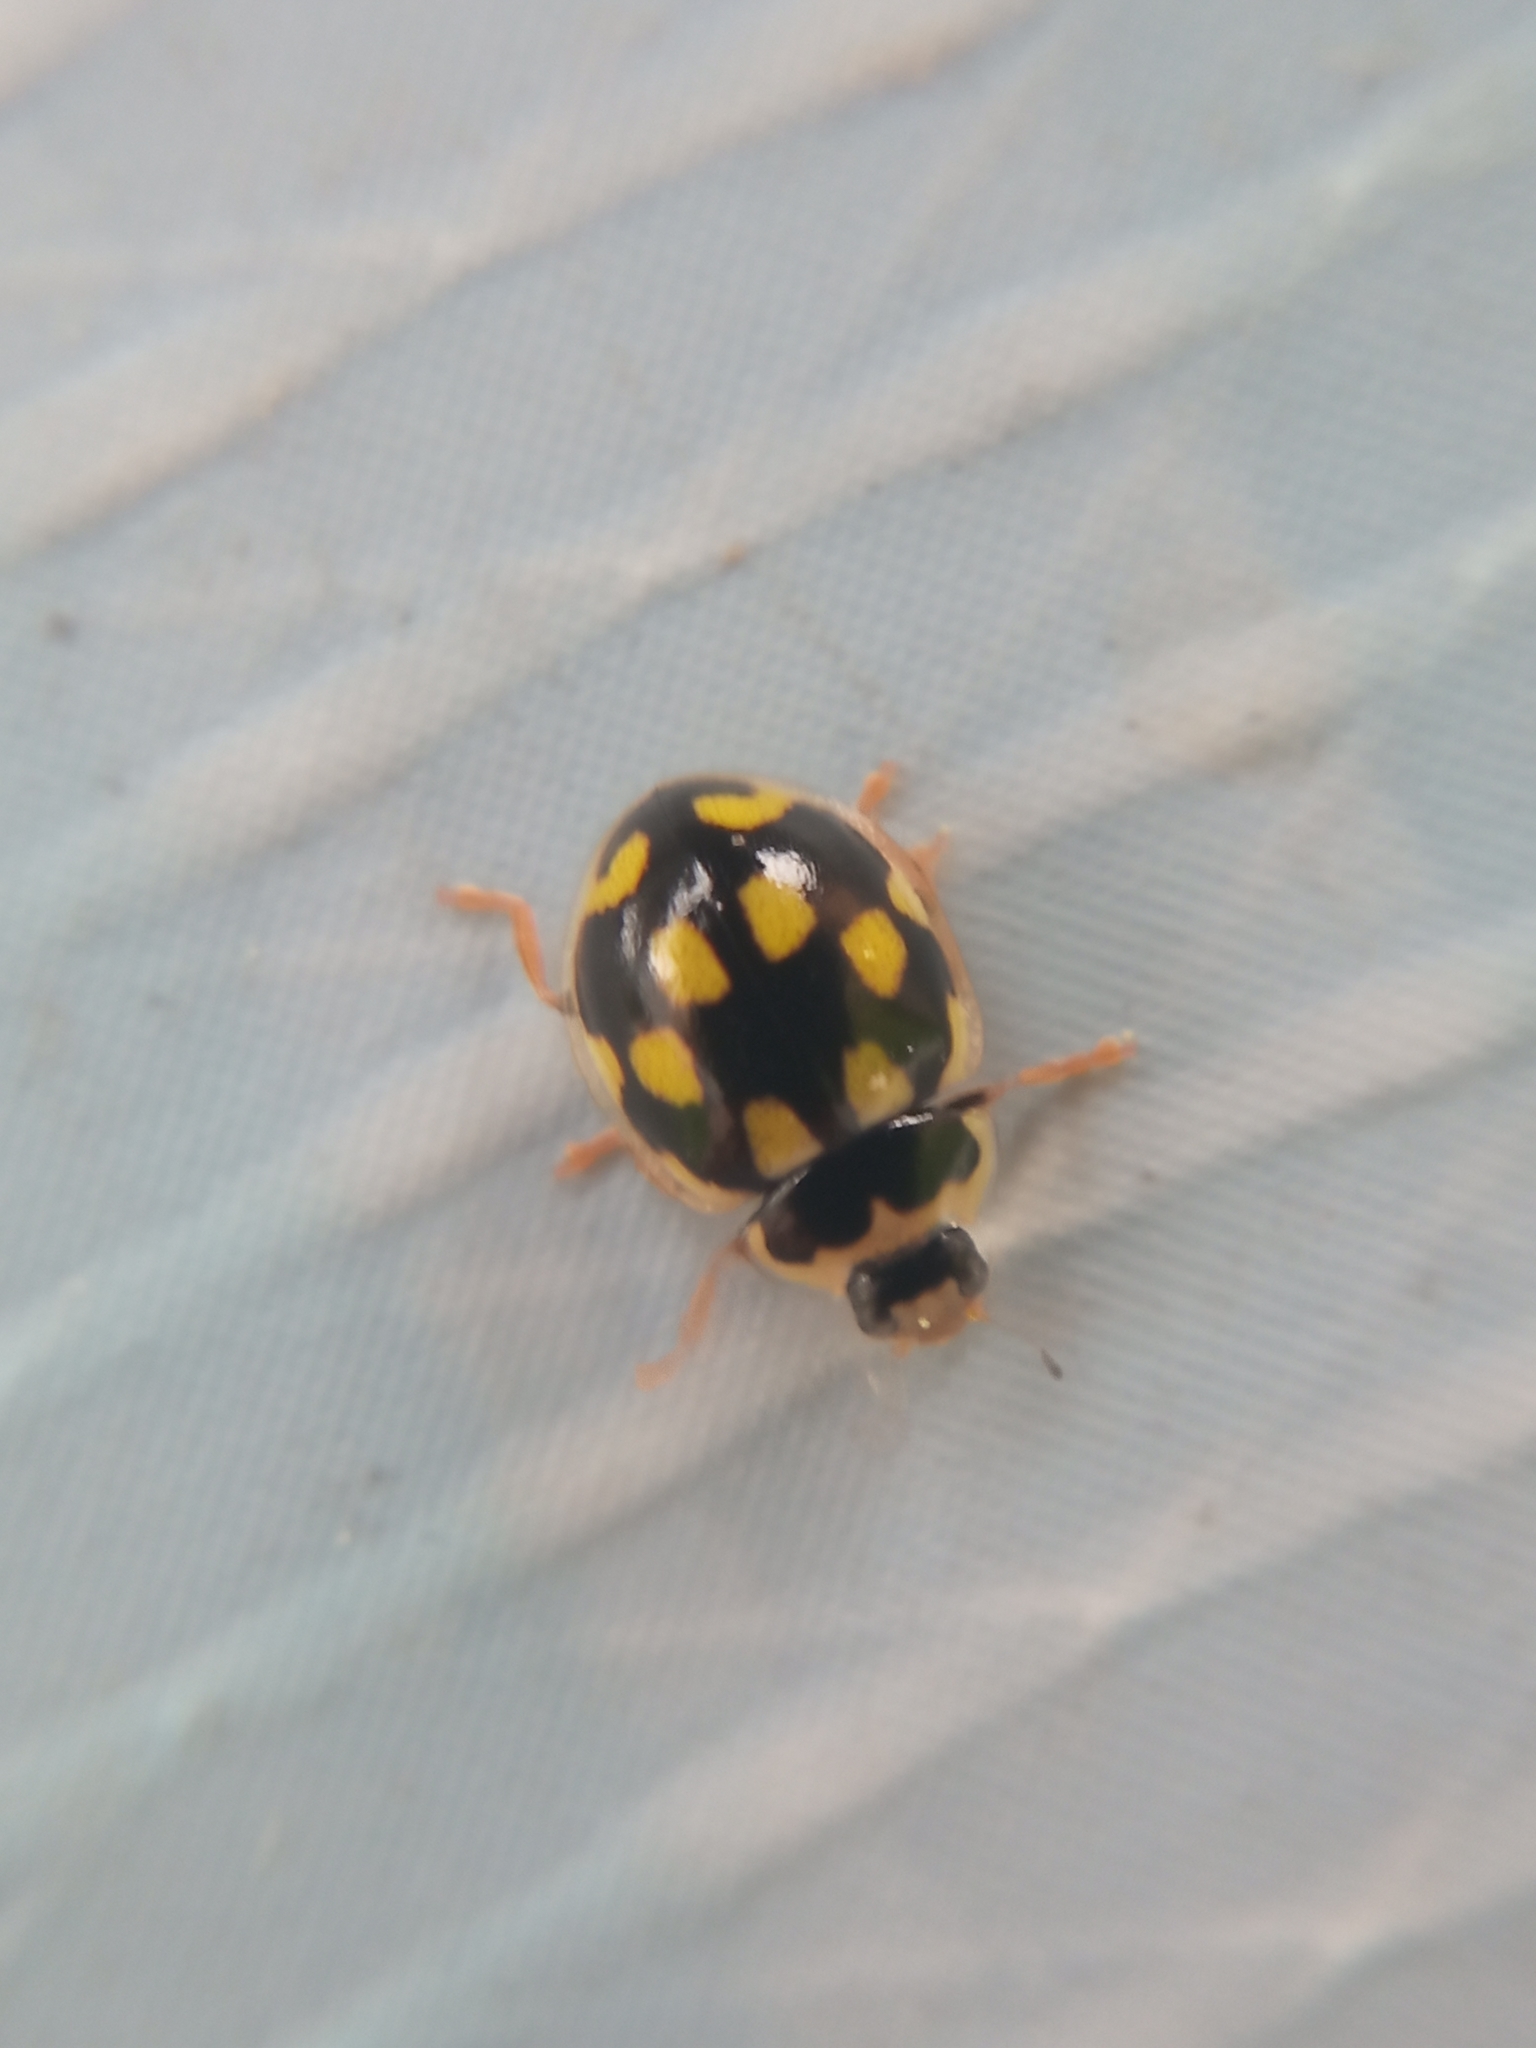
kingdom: Animalia
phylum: Arthropoda
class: Insecta
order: Coleoptera
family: Coccinellidae
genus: Propylaea
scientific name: Propylaea quatuordecimpunctata
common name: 14-spotted ladybird beetle
